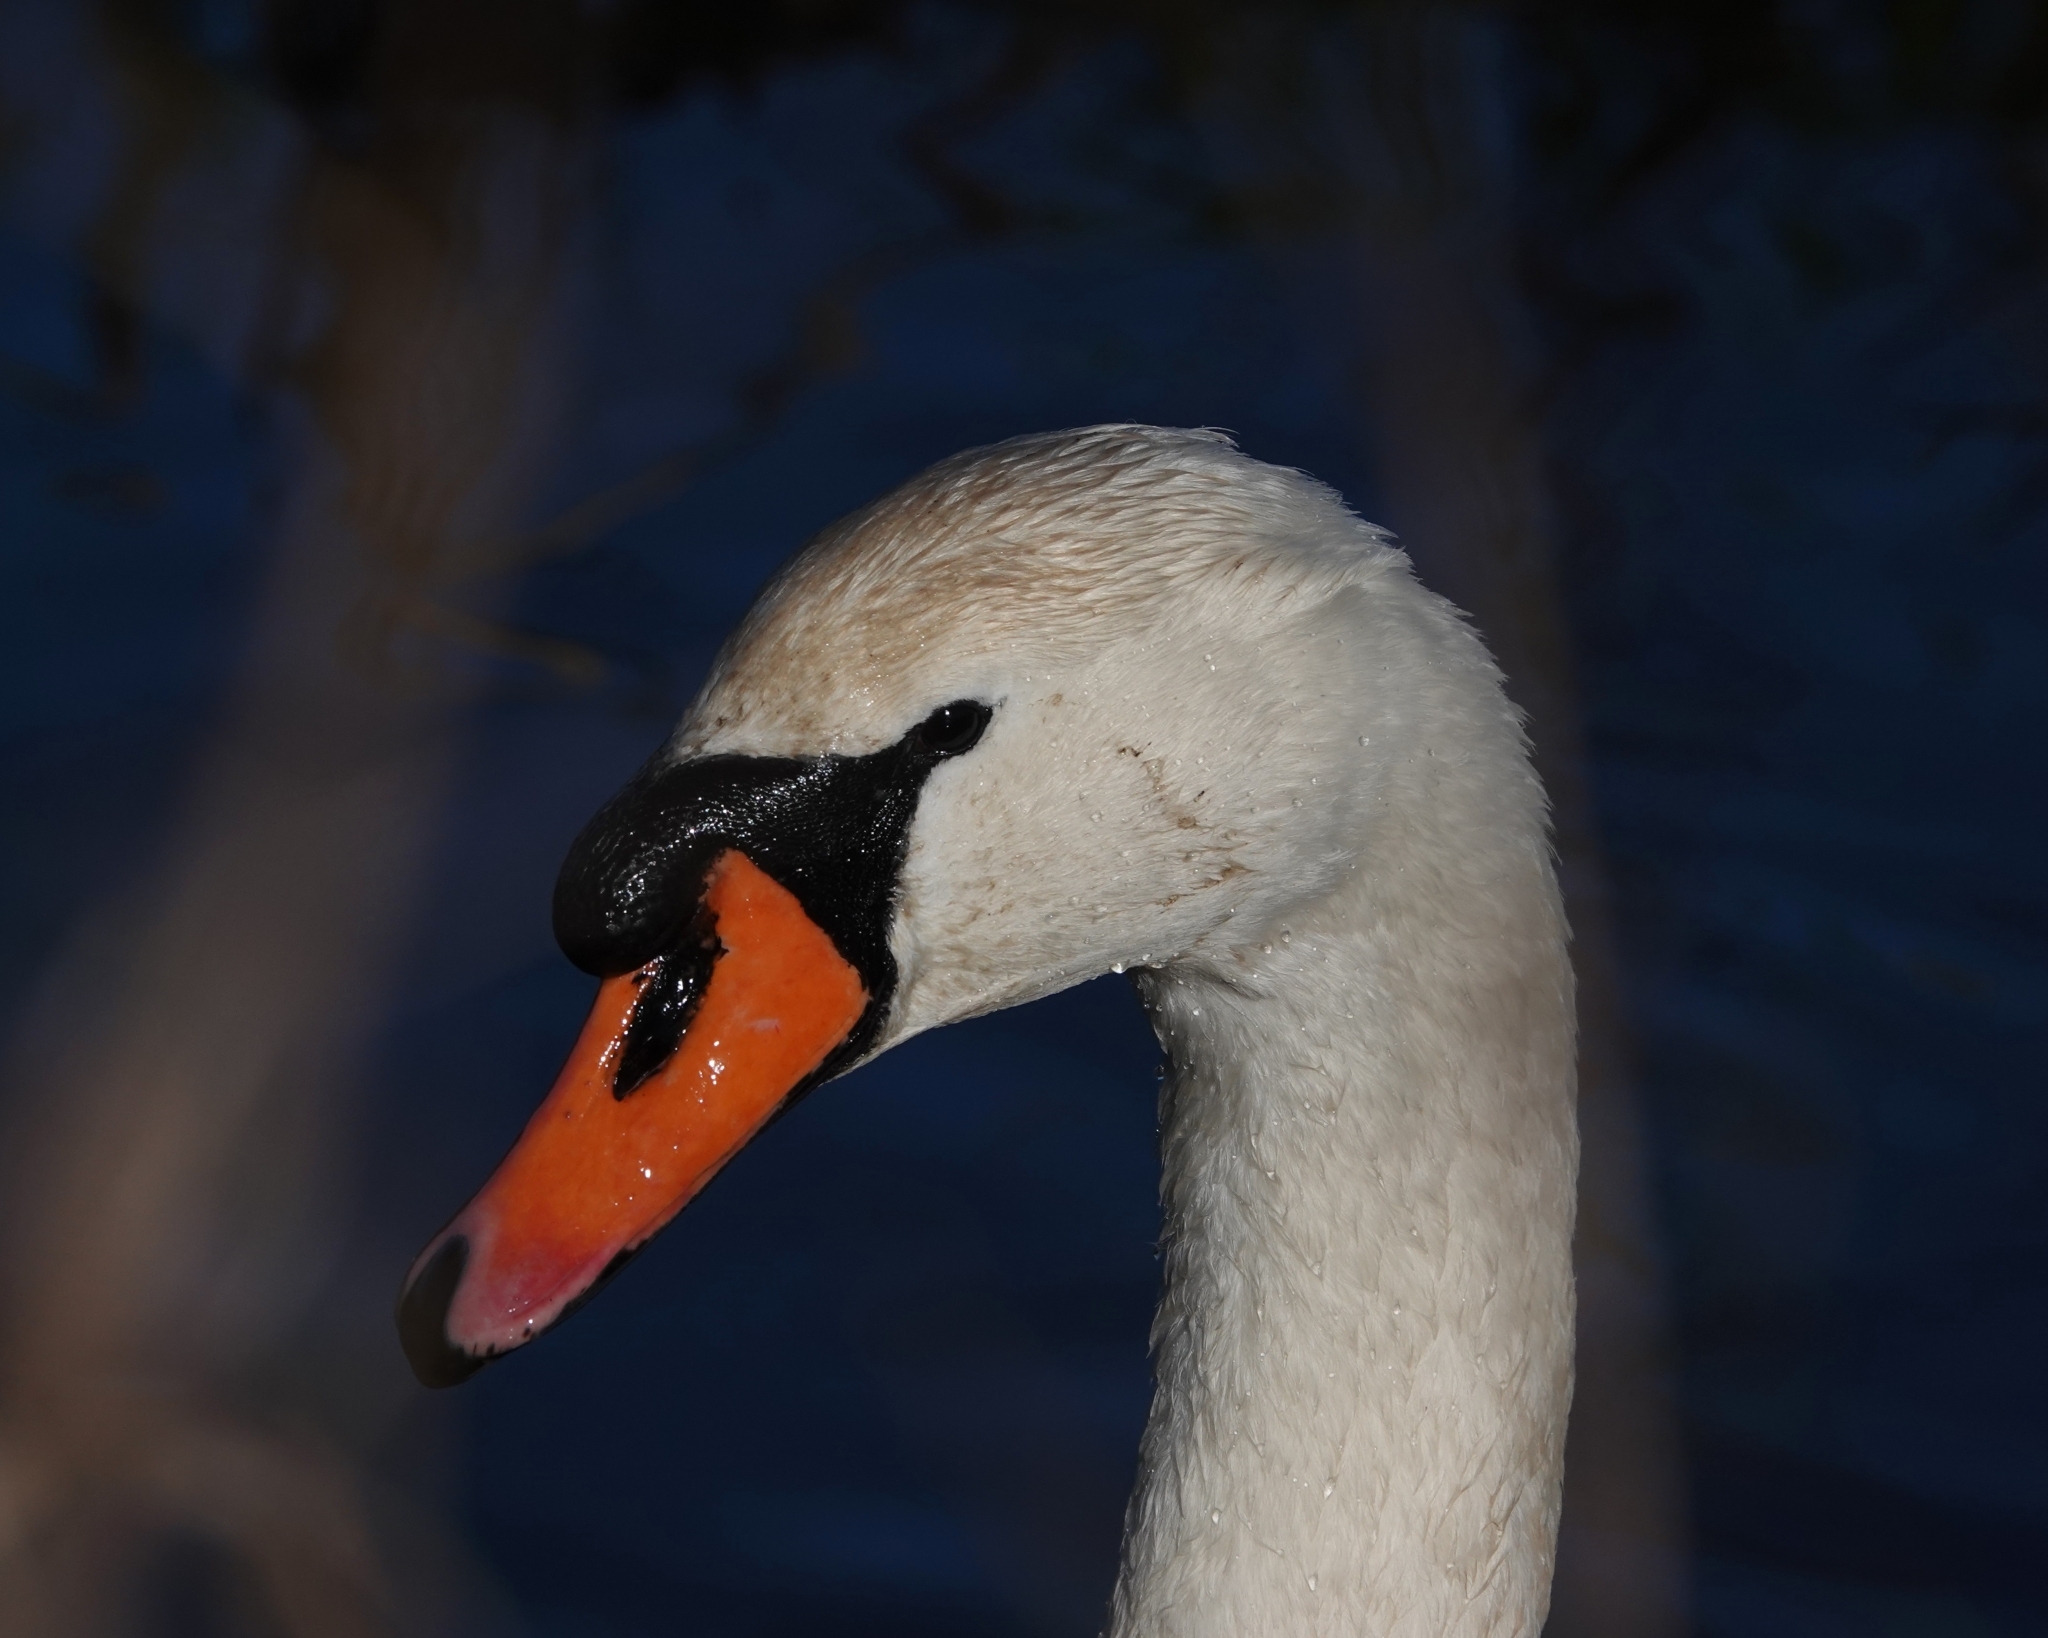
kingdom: Animalia
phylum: Chordata
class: Aves
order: Anseriformes
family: Anatidae
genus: Cygnus
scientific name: Cygnus olor
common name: Mute swan
